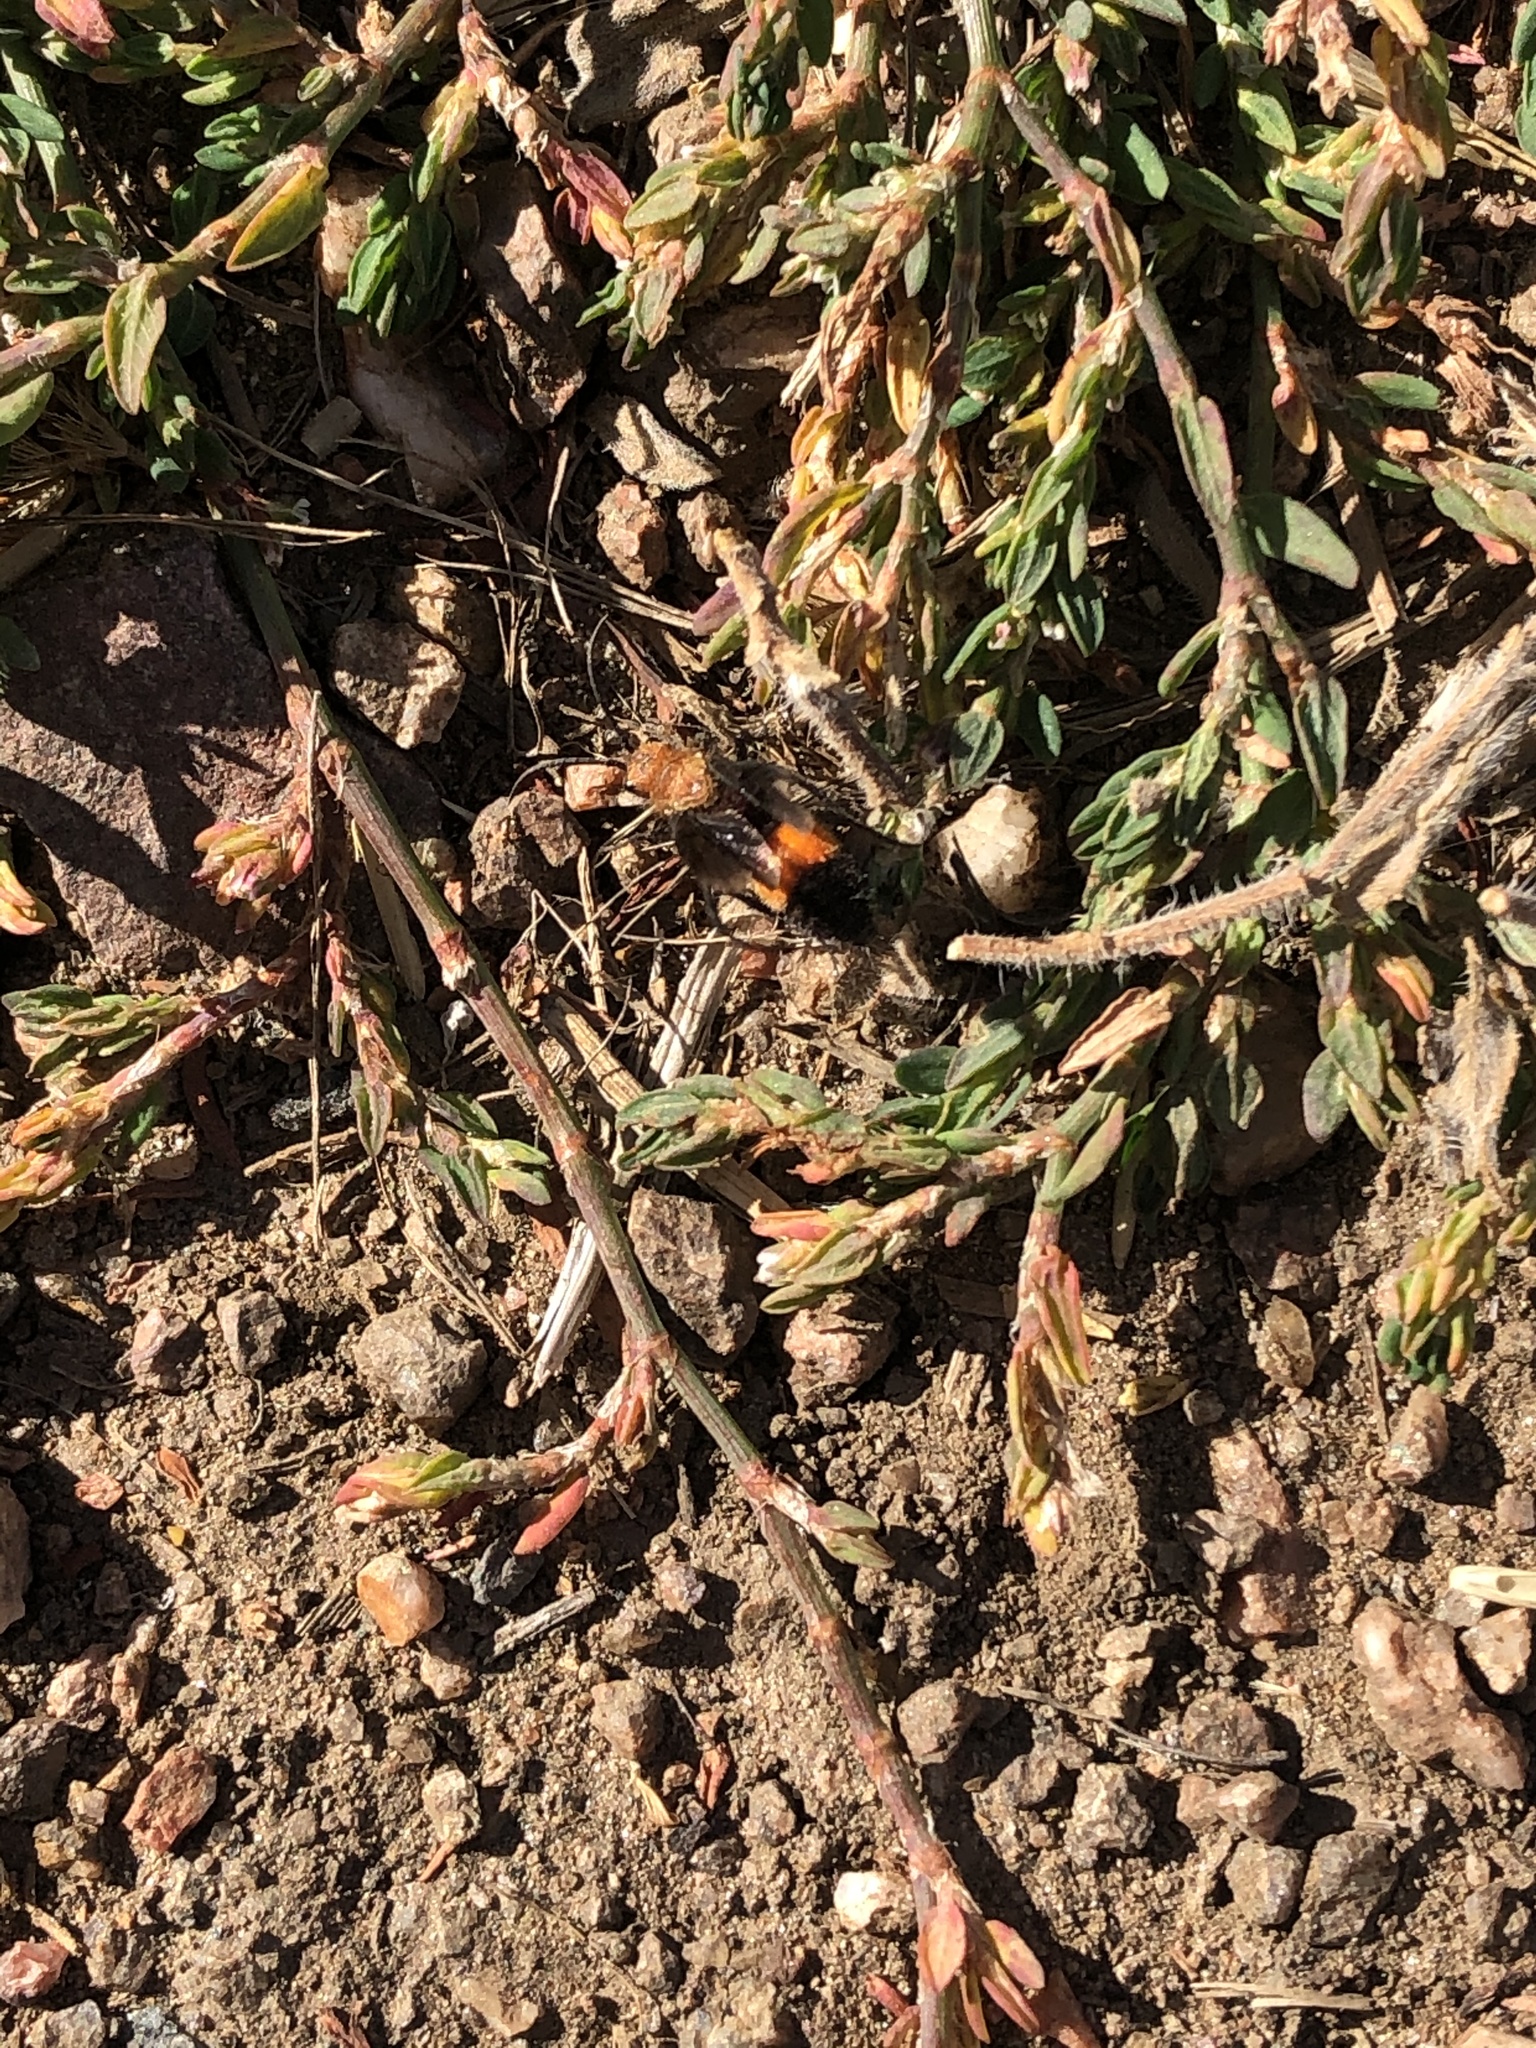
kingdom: Animalia
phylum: Arthropoda
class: Insecta
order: Hymenoptera
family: Mutillidae
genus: Dasymutilla
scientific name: Dasymutilla
